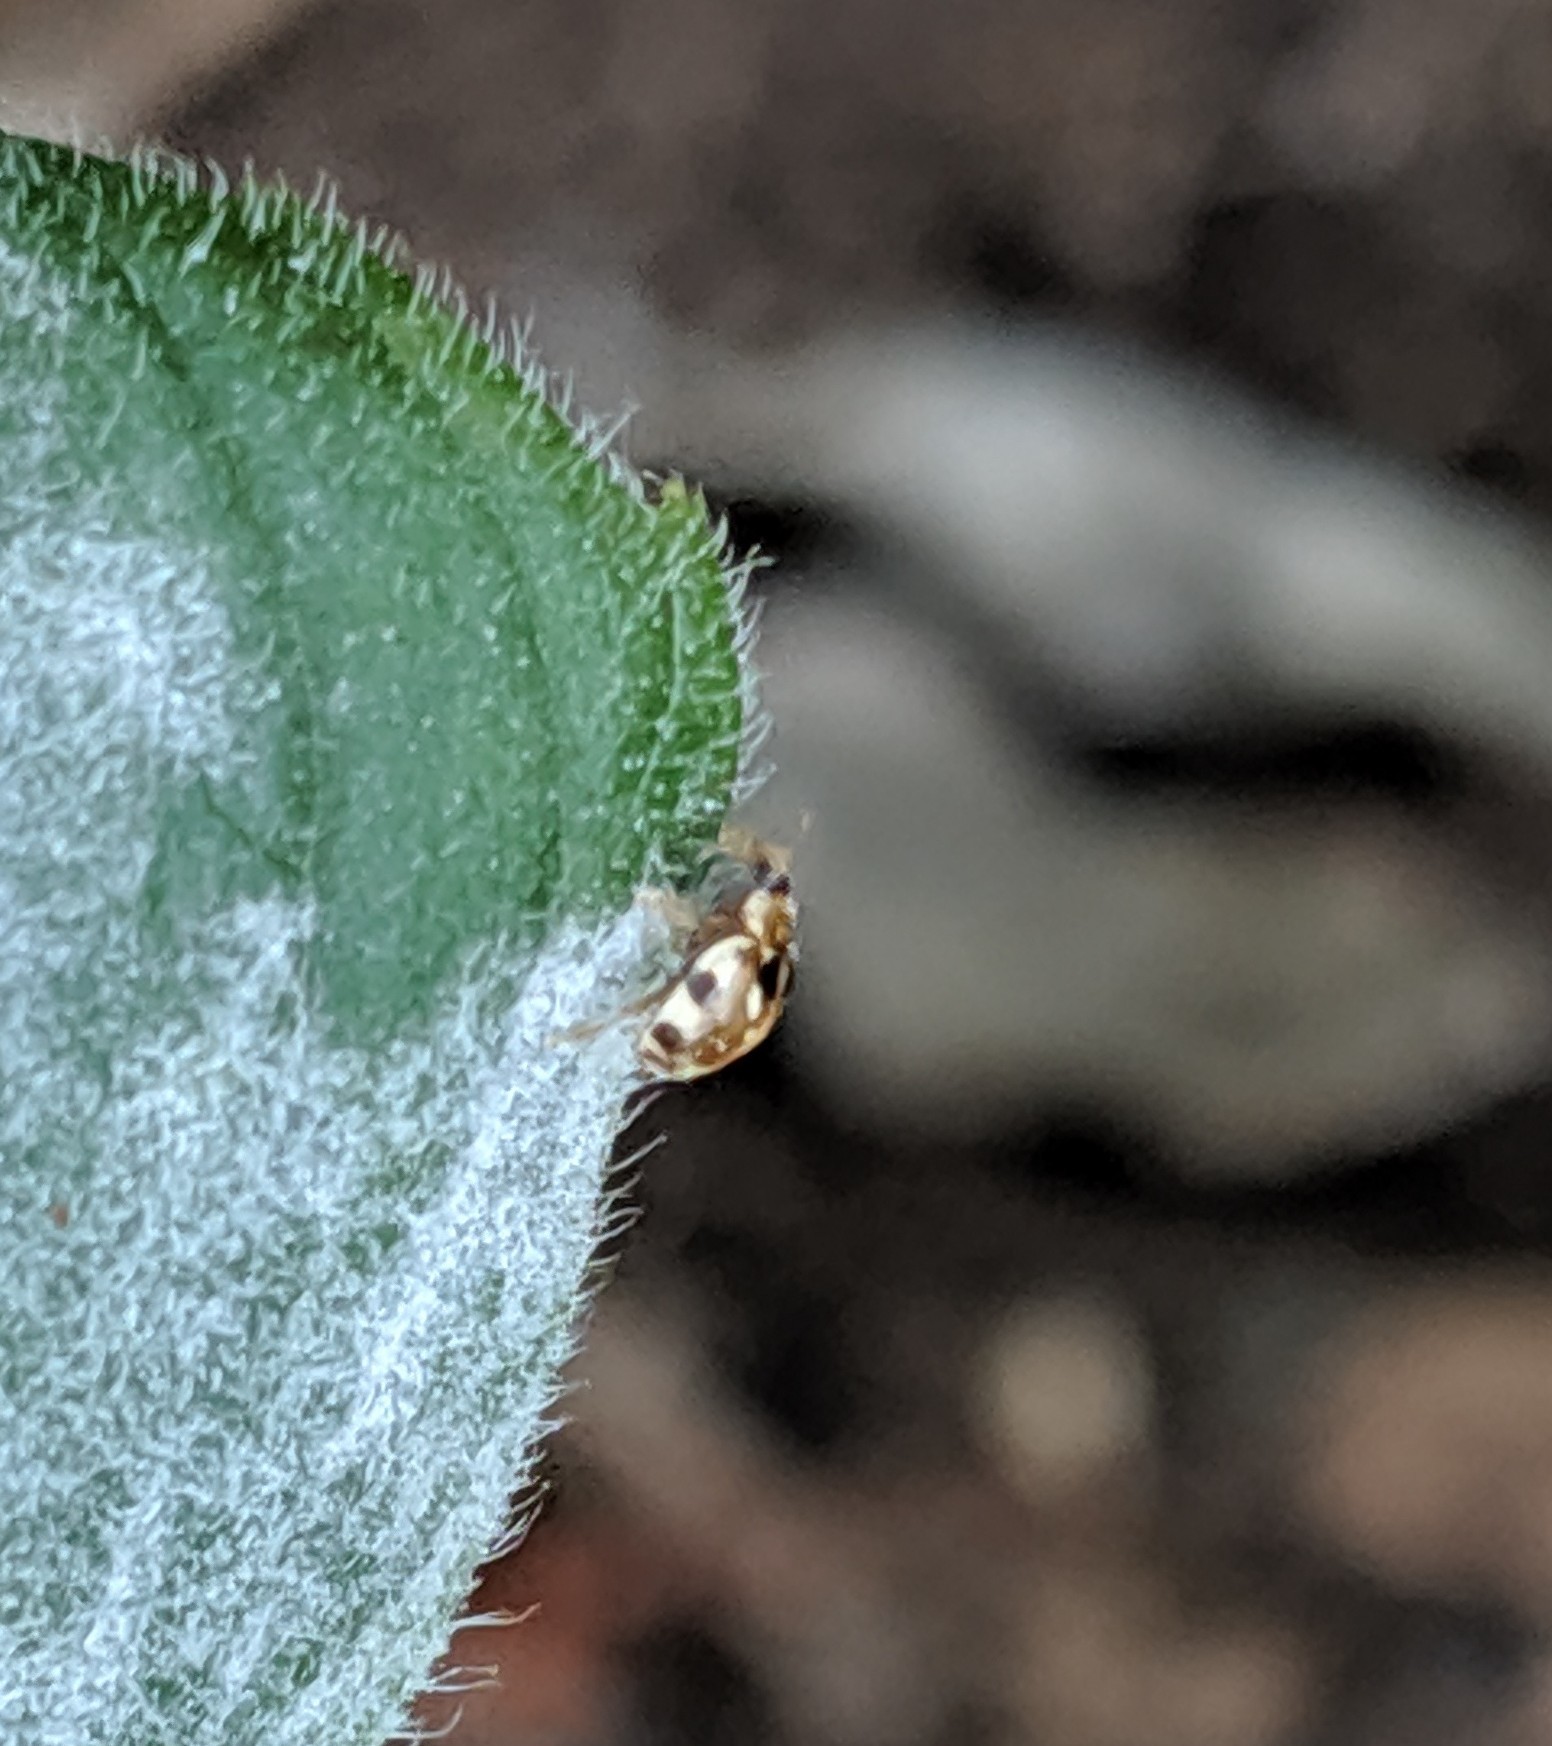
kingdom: Animalia
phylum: Arthropoda
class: Insecta
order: Coleoptera
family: Coccinellidae
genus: Psyllobora
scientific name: Psyllobora vigintimaculata
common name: Ladybird beetle
